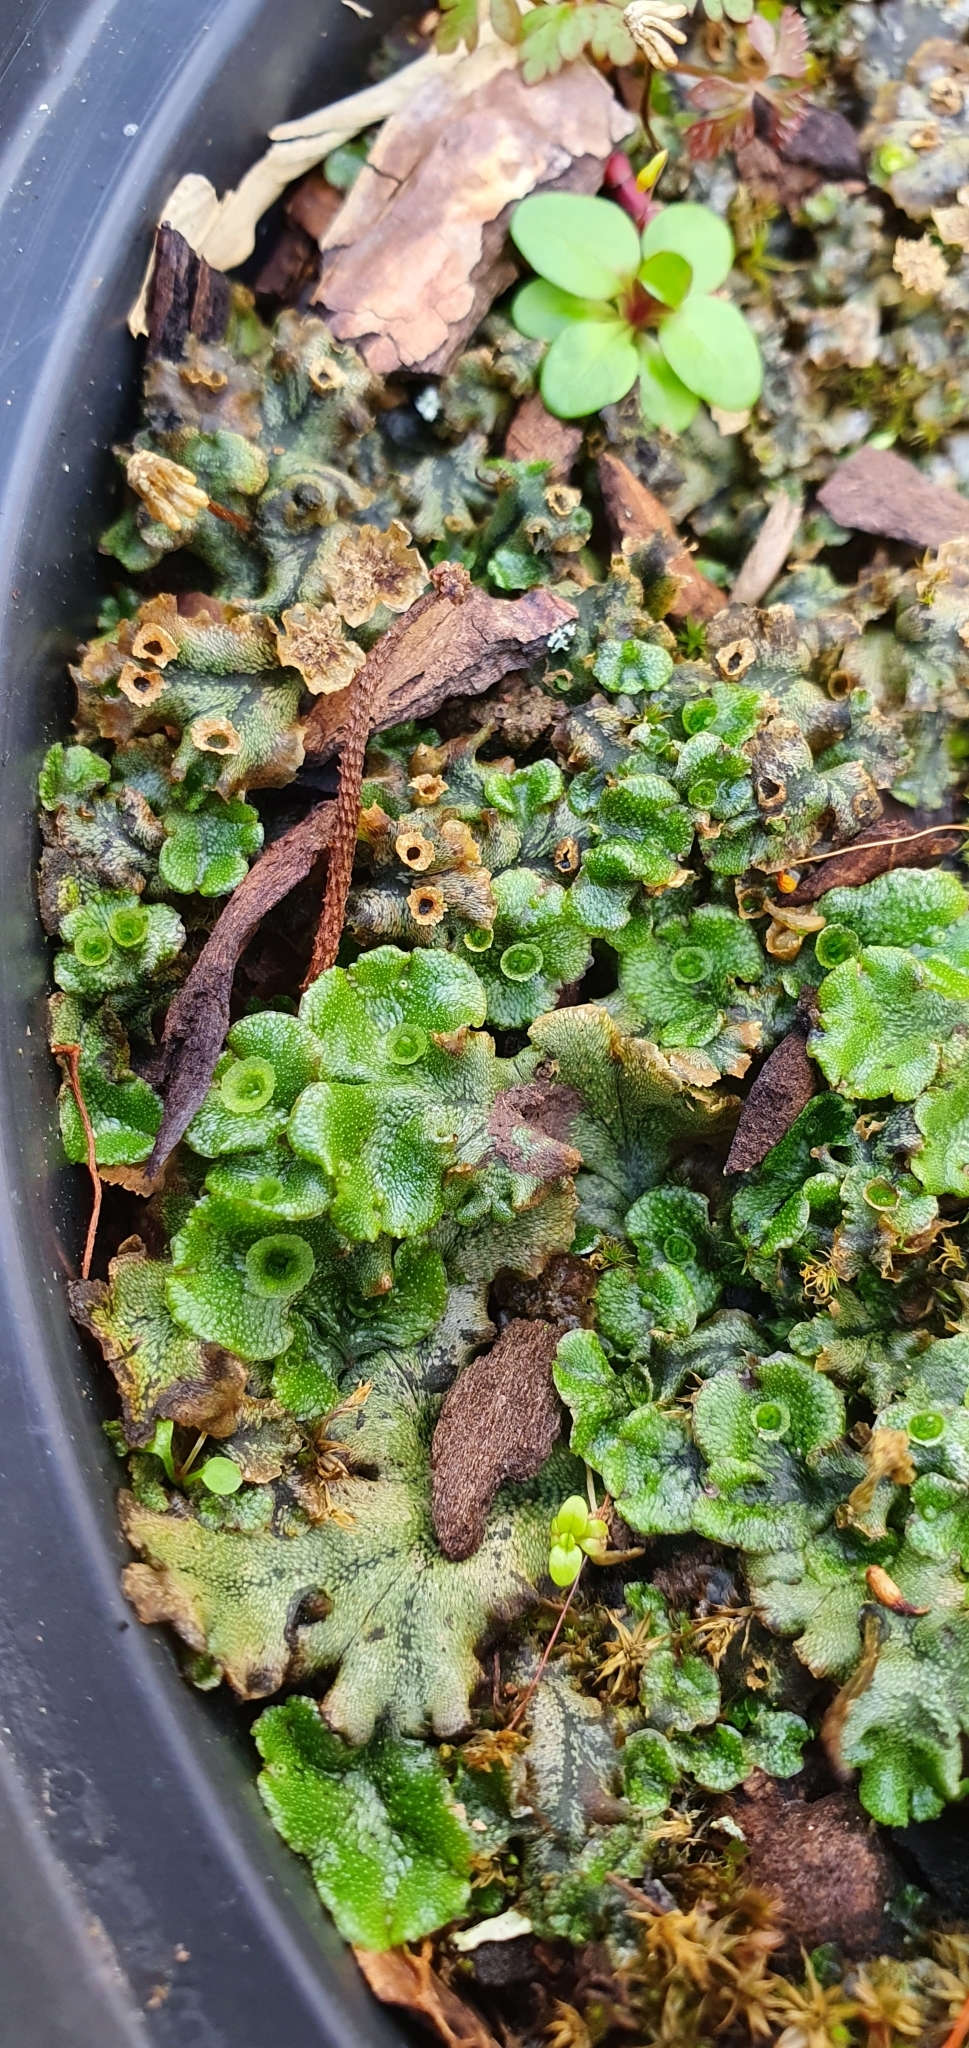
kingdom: Plantae
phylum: Marchantiophyta
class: Marchantiopsida
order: Marchantiales
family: Marchantiaceae
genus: Marchantia
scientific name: Marchantia polymorpha
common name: Common liverwort
